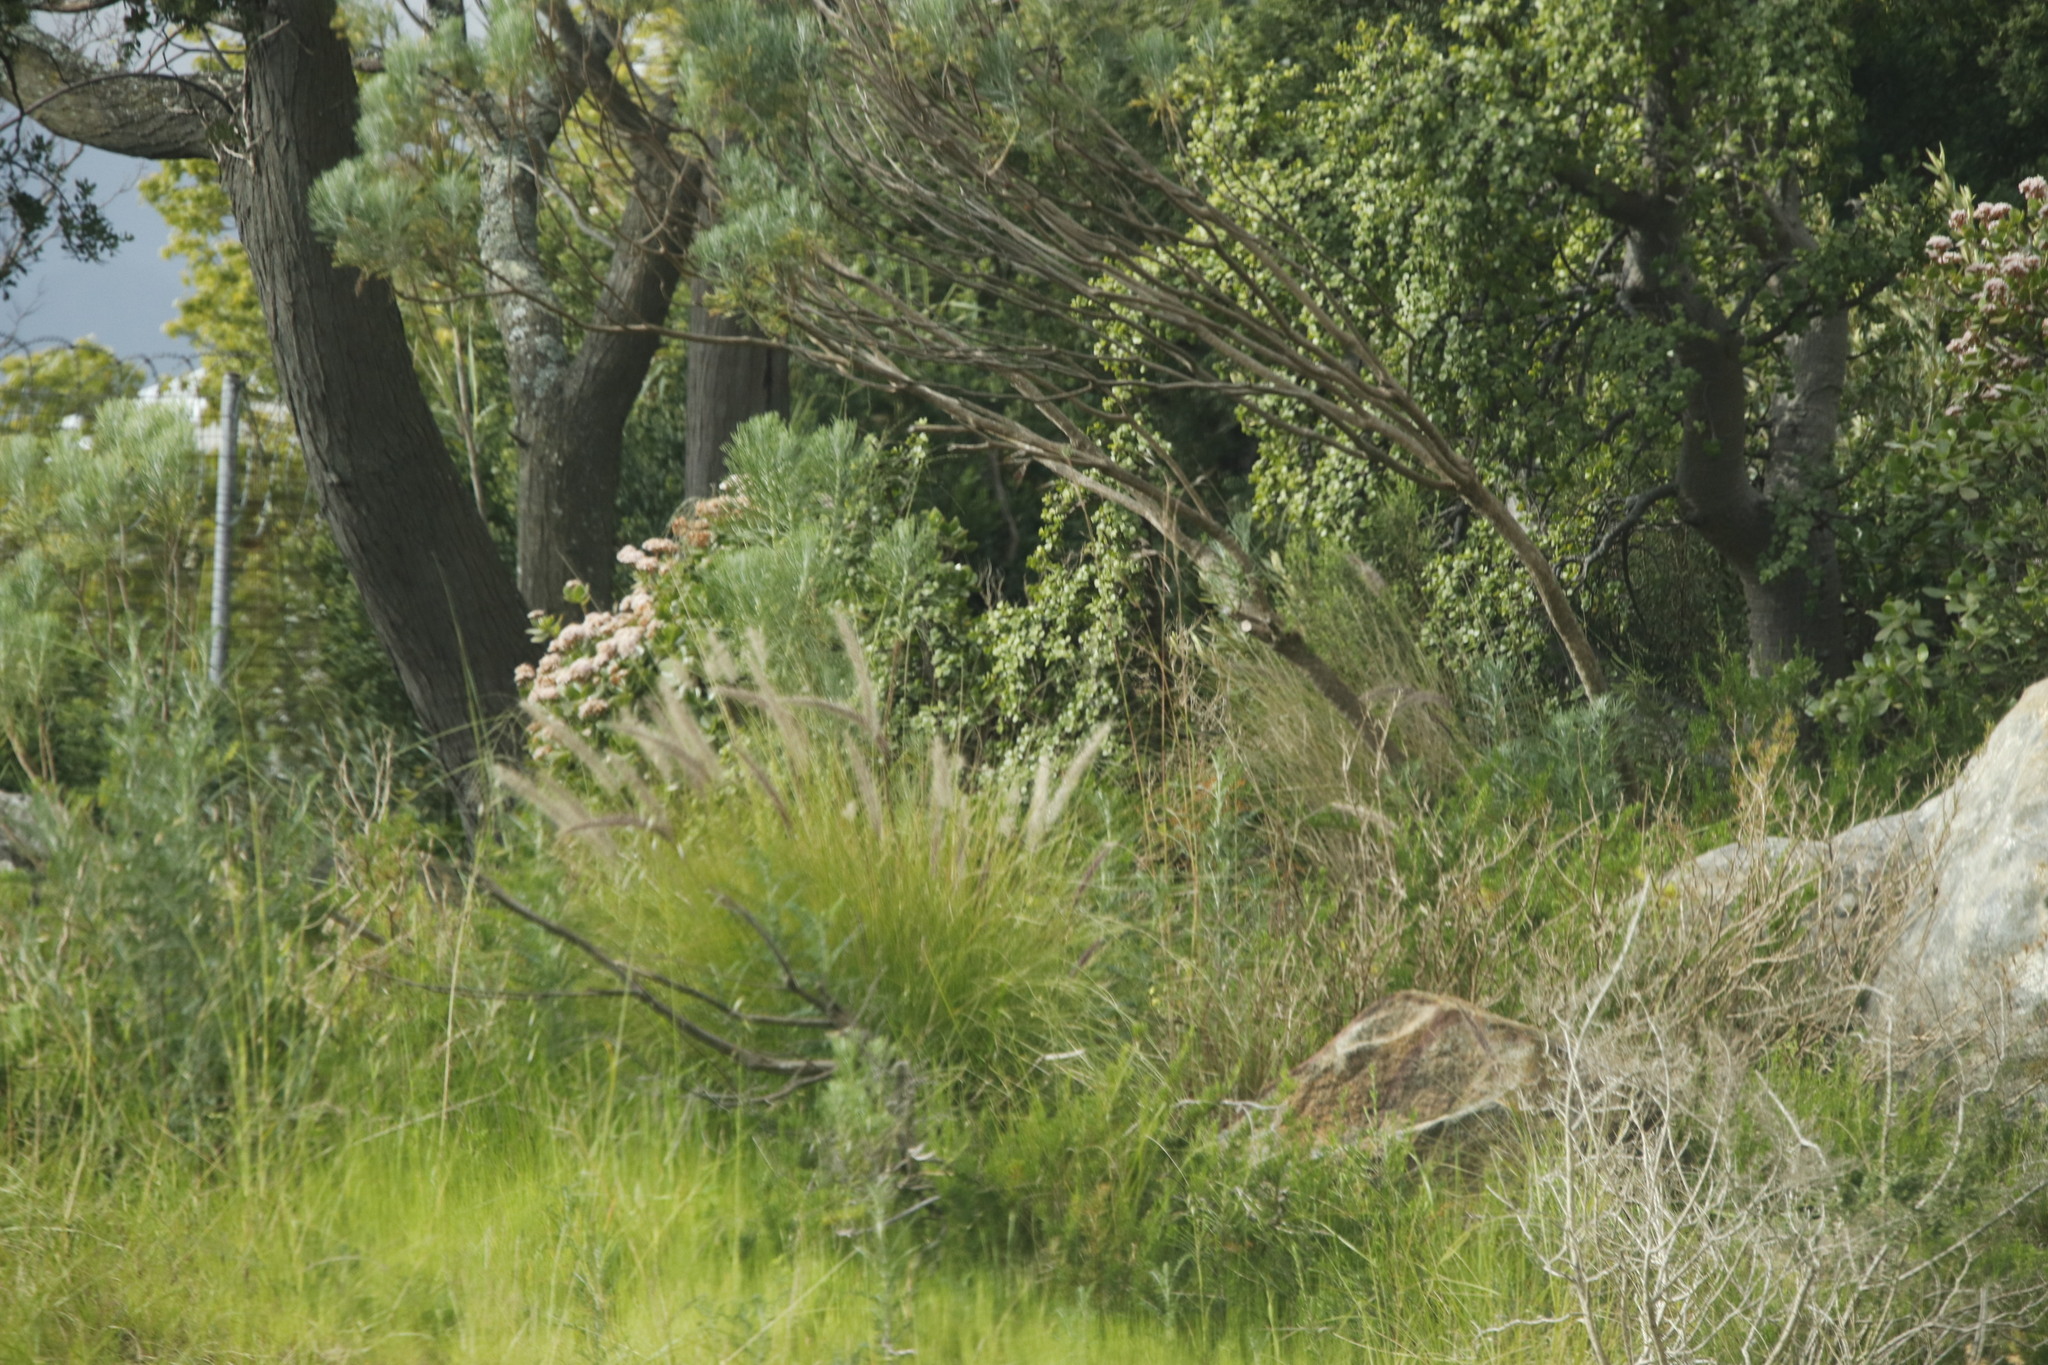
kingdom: Plantae
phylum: Tracheophyta
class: Liliopsida
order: Poales
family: Poaceae
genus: Cenchrus
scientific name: Cenchrus setaceus
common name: Crimson fountaingrass
